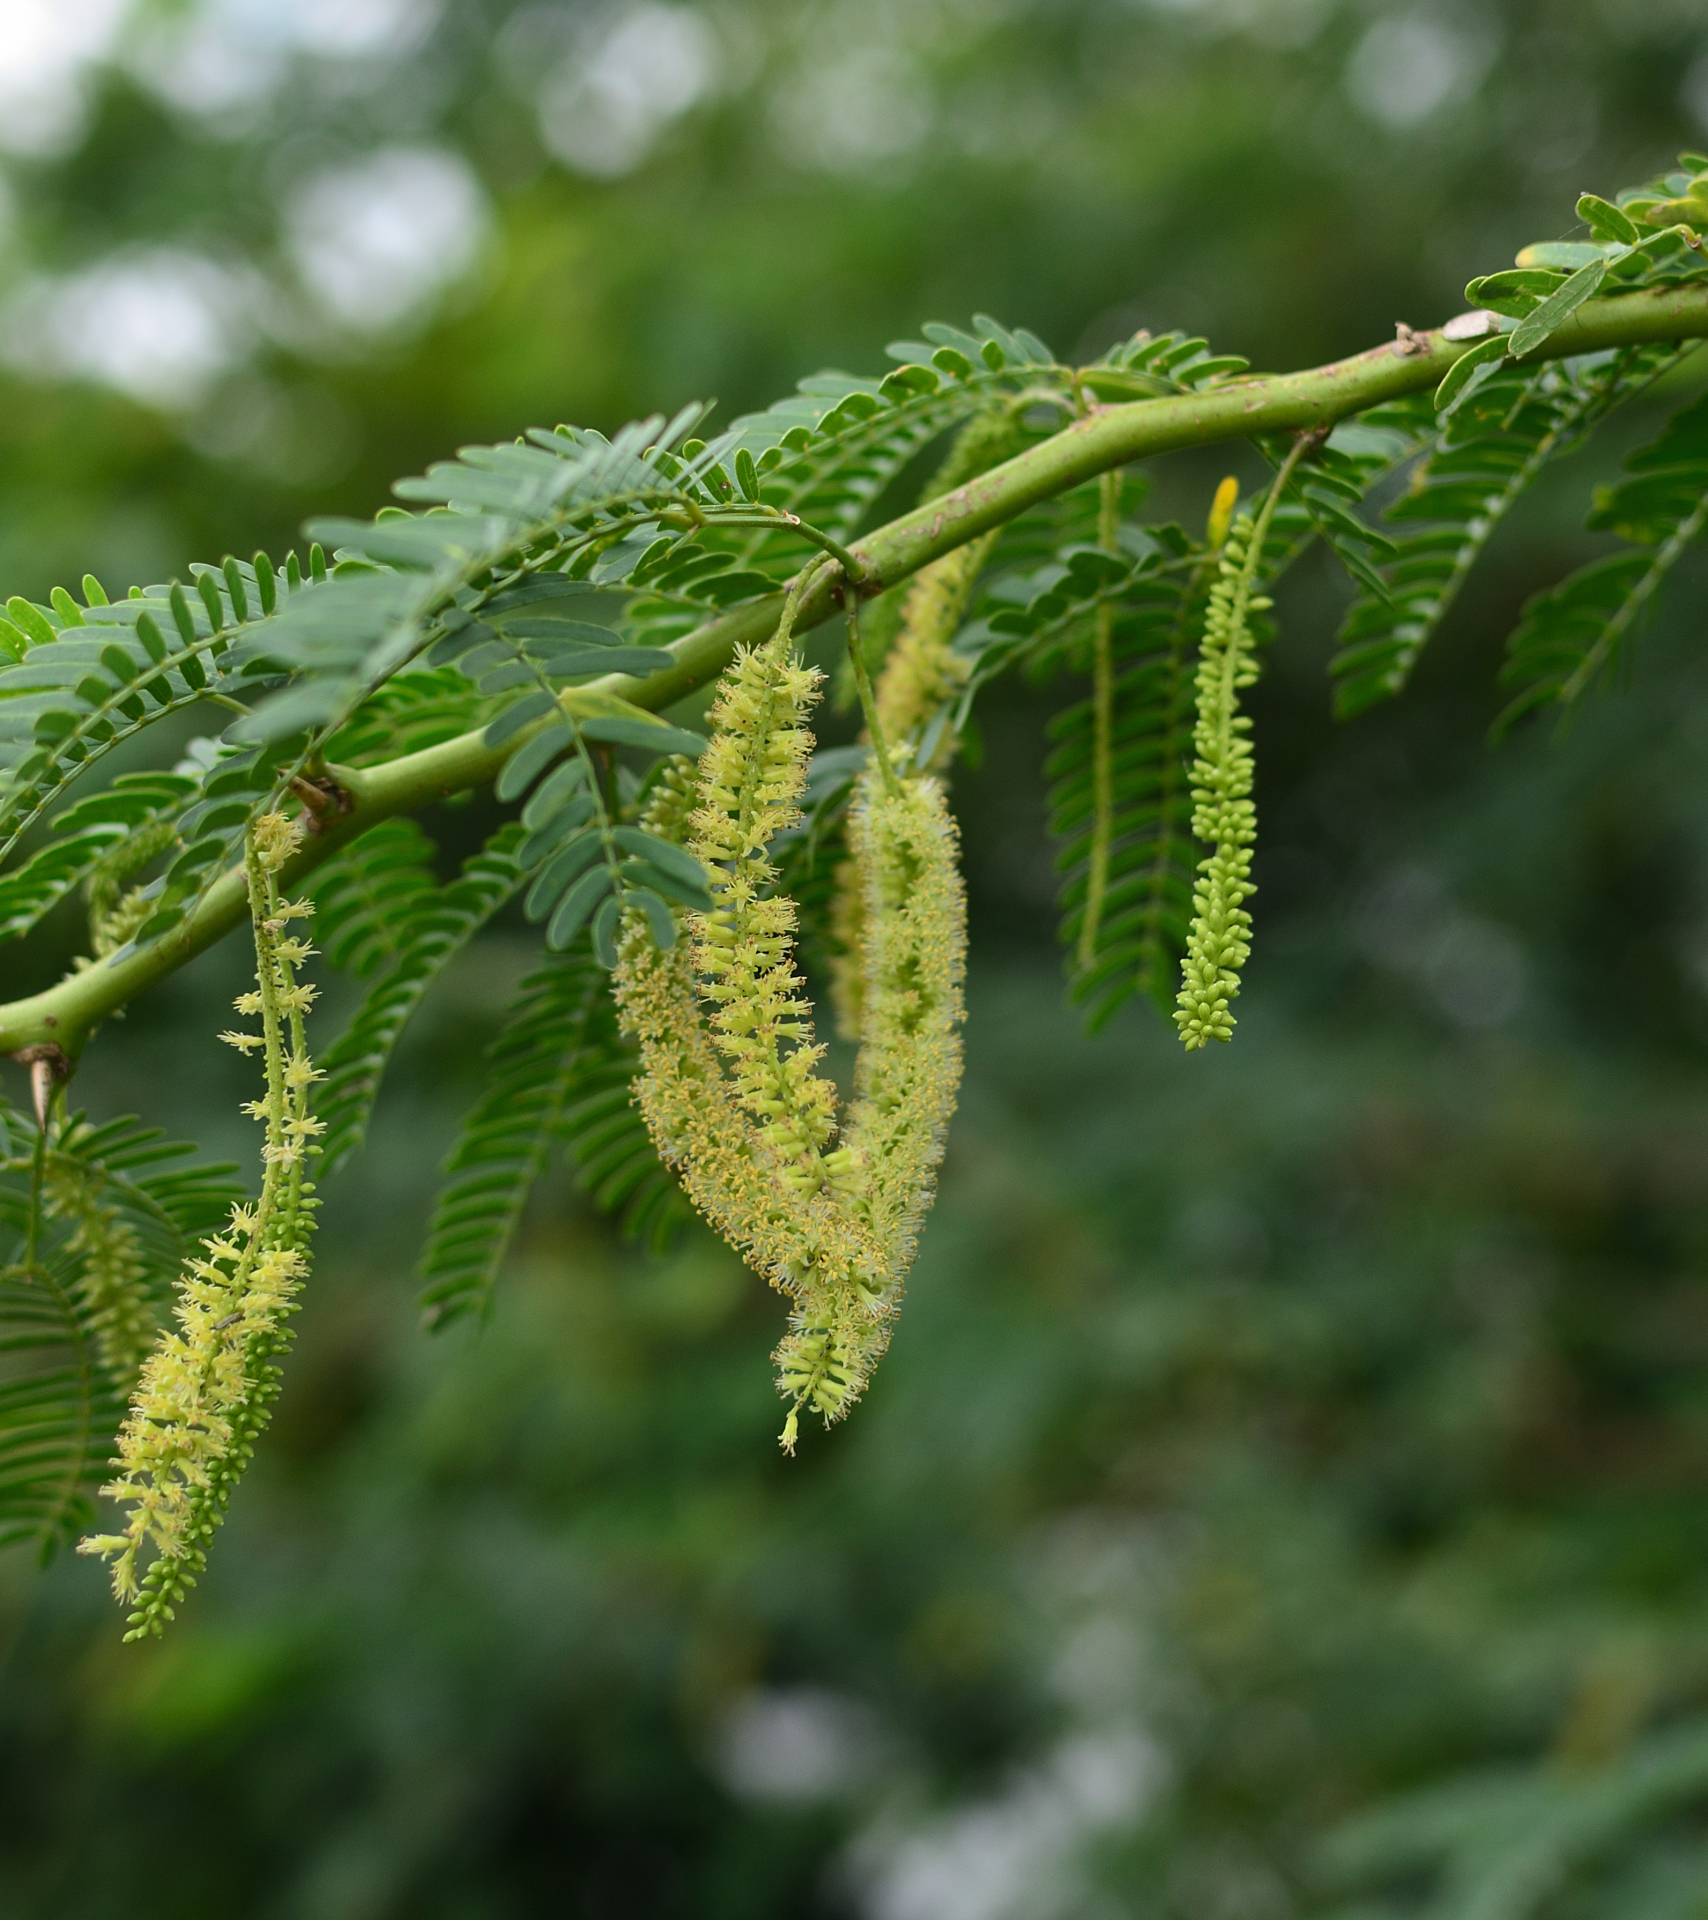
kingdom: Plantae
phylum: Tracheophyta
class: Magnoliopsida
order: Fabales
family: Fabaceae
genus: Prosopis
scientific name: Prosopis juliflora
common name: Mesquite
